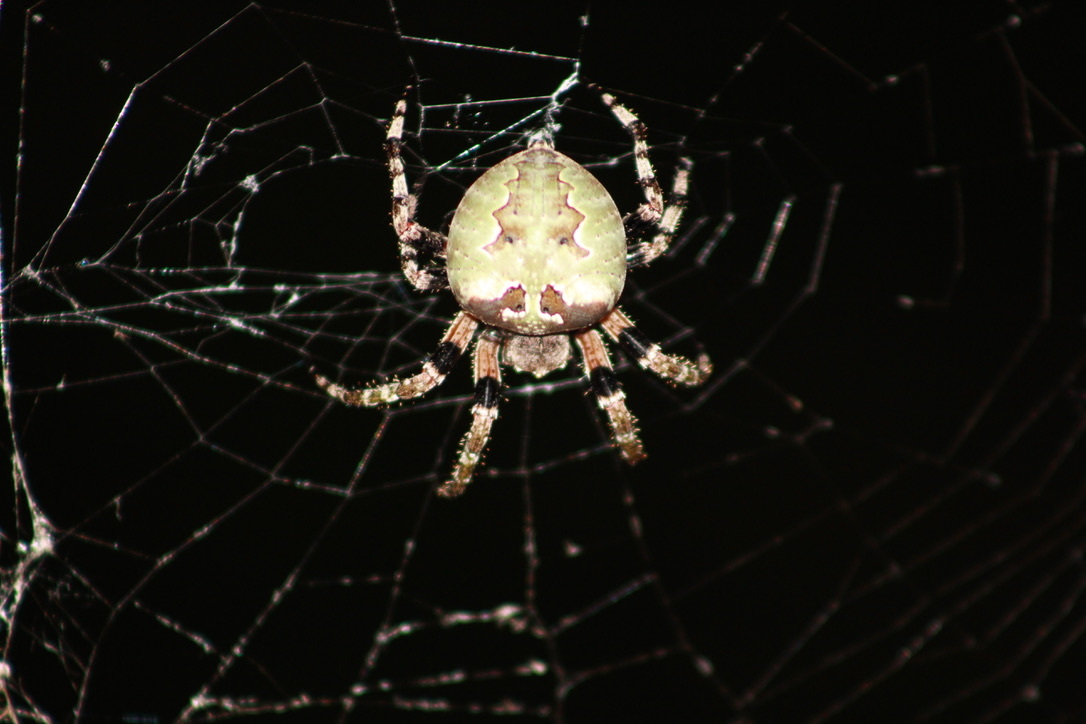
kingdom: Animalia
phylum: Arthropoda
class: Arachnida
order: Araneae
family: Araneidae
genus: Araneus
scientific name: Araneus bicentenarius
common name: Giant lichen orbweaver
